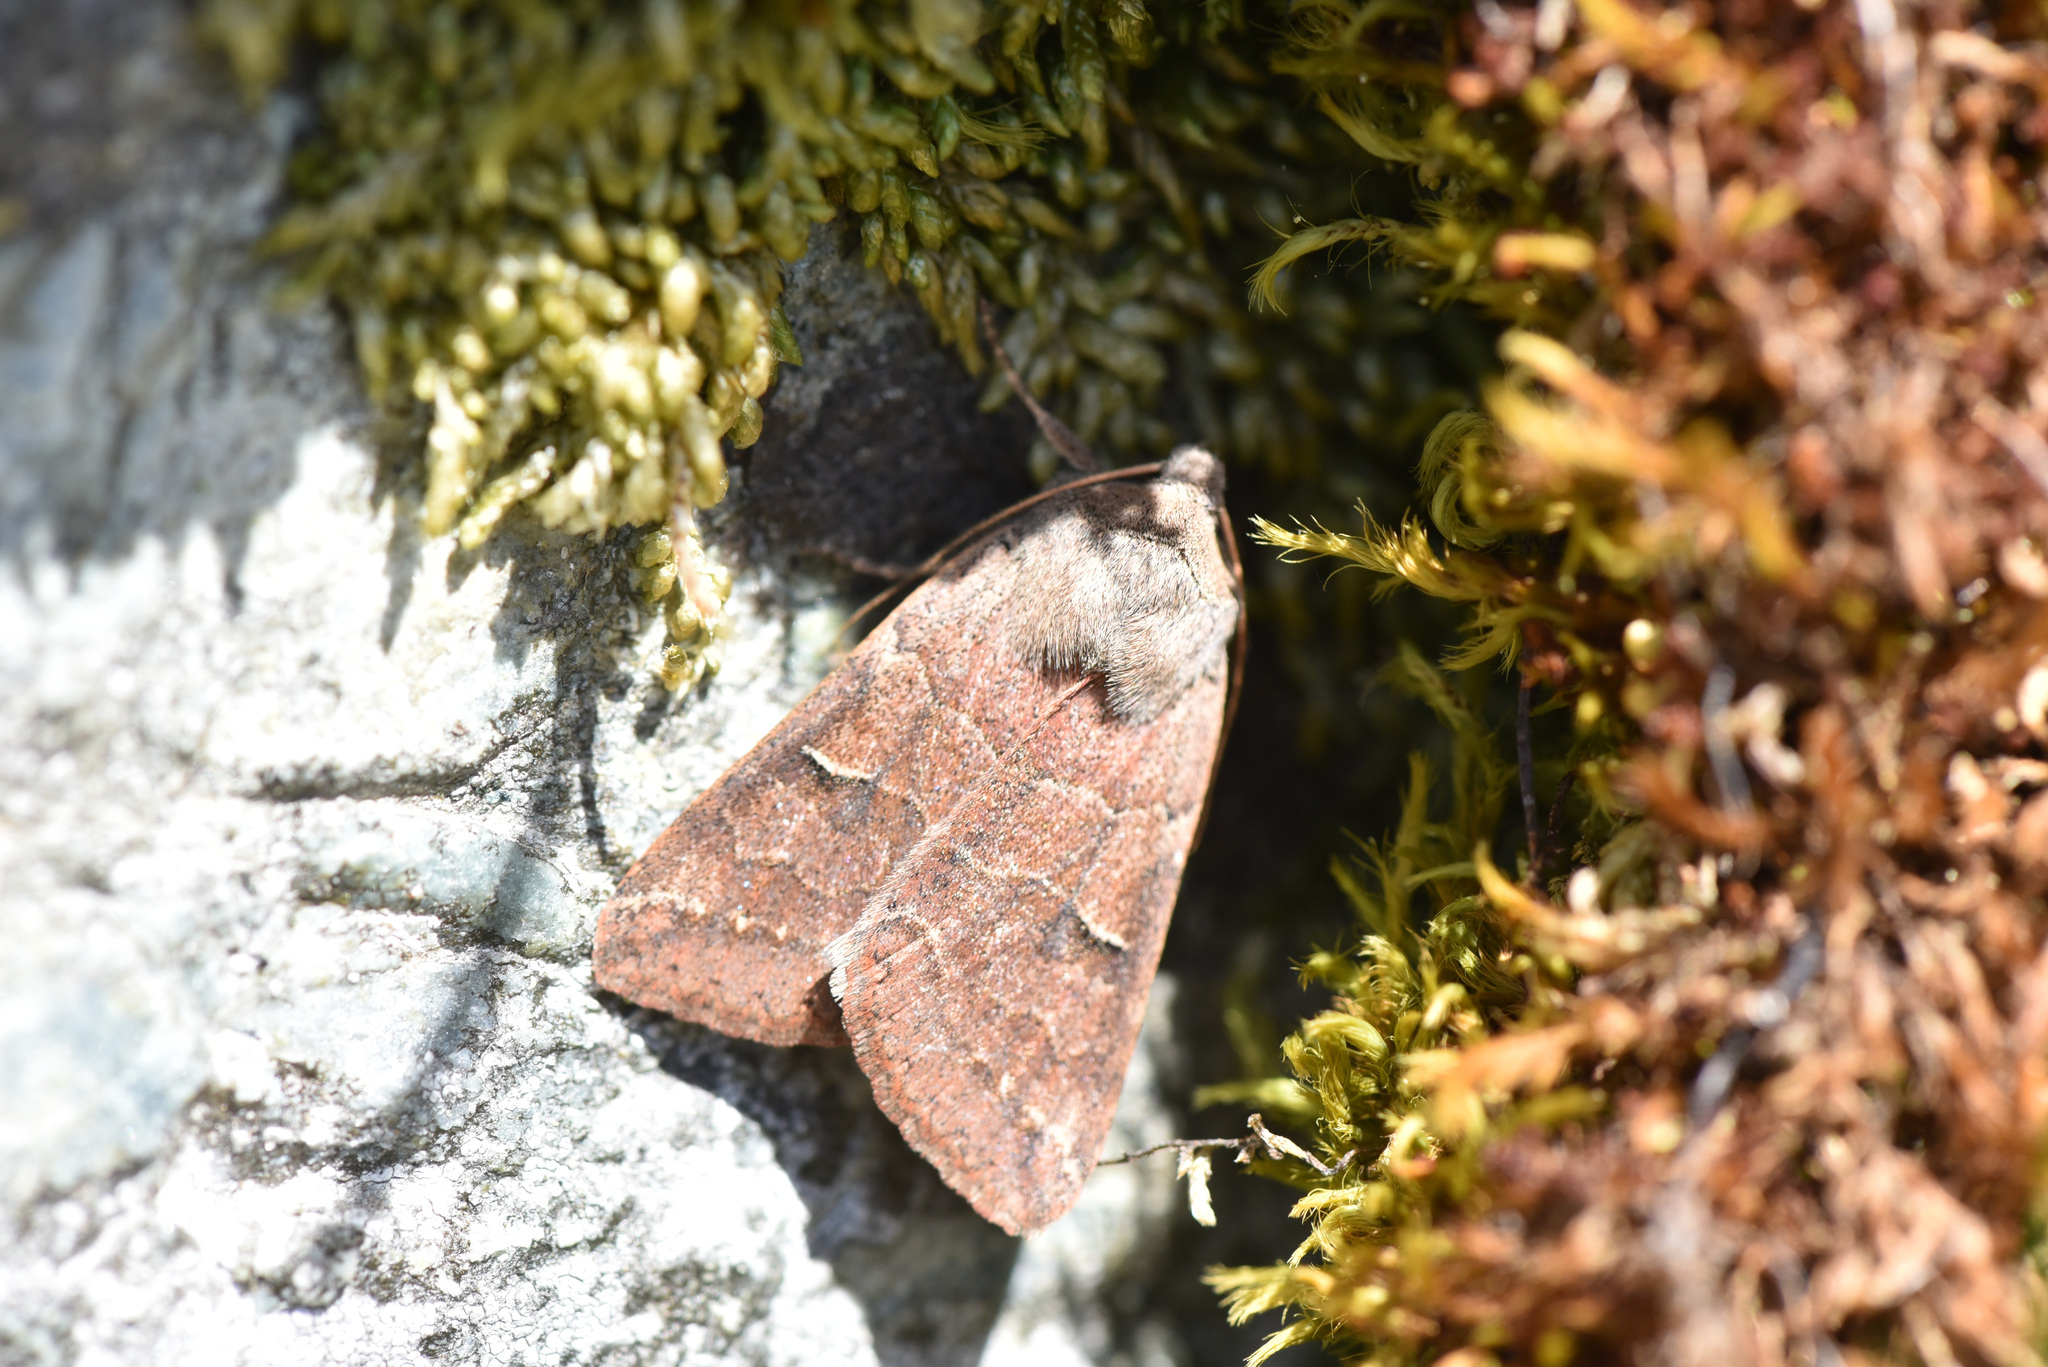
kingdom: Animalia
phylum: Arthropoda
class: Insecta
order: Lepidoptera
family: Erebidae
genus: Cissusa
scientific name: Cissusa indiscreta
